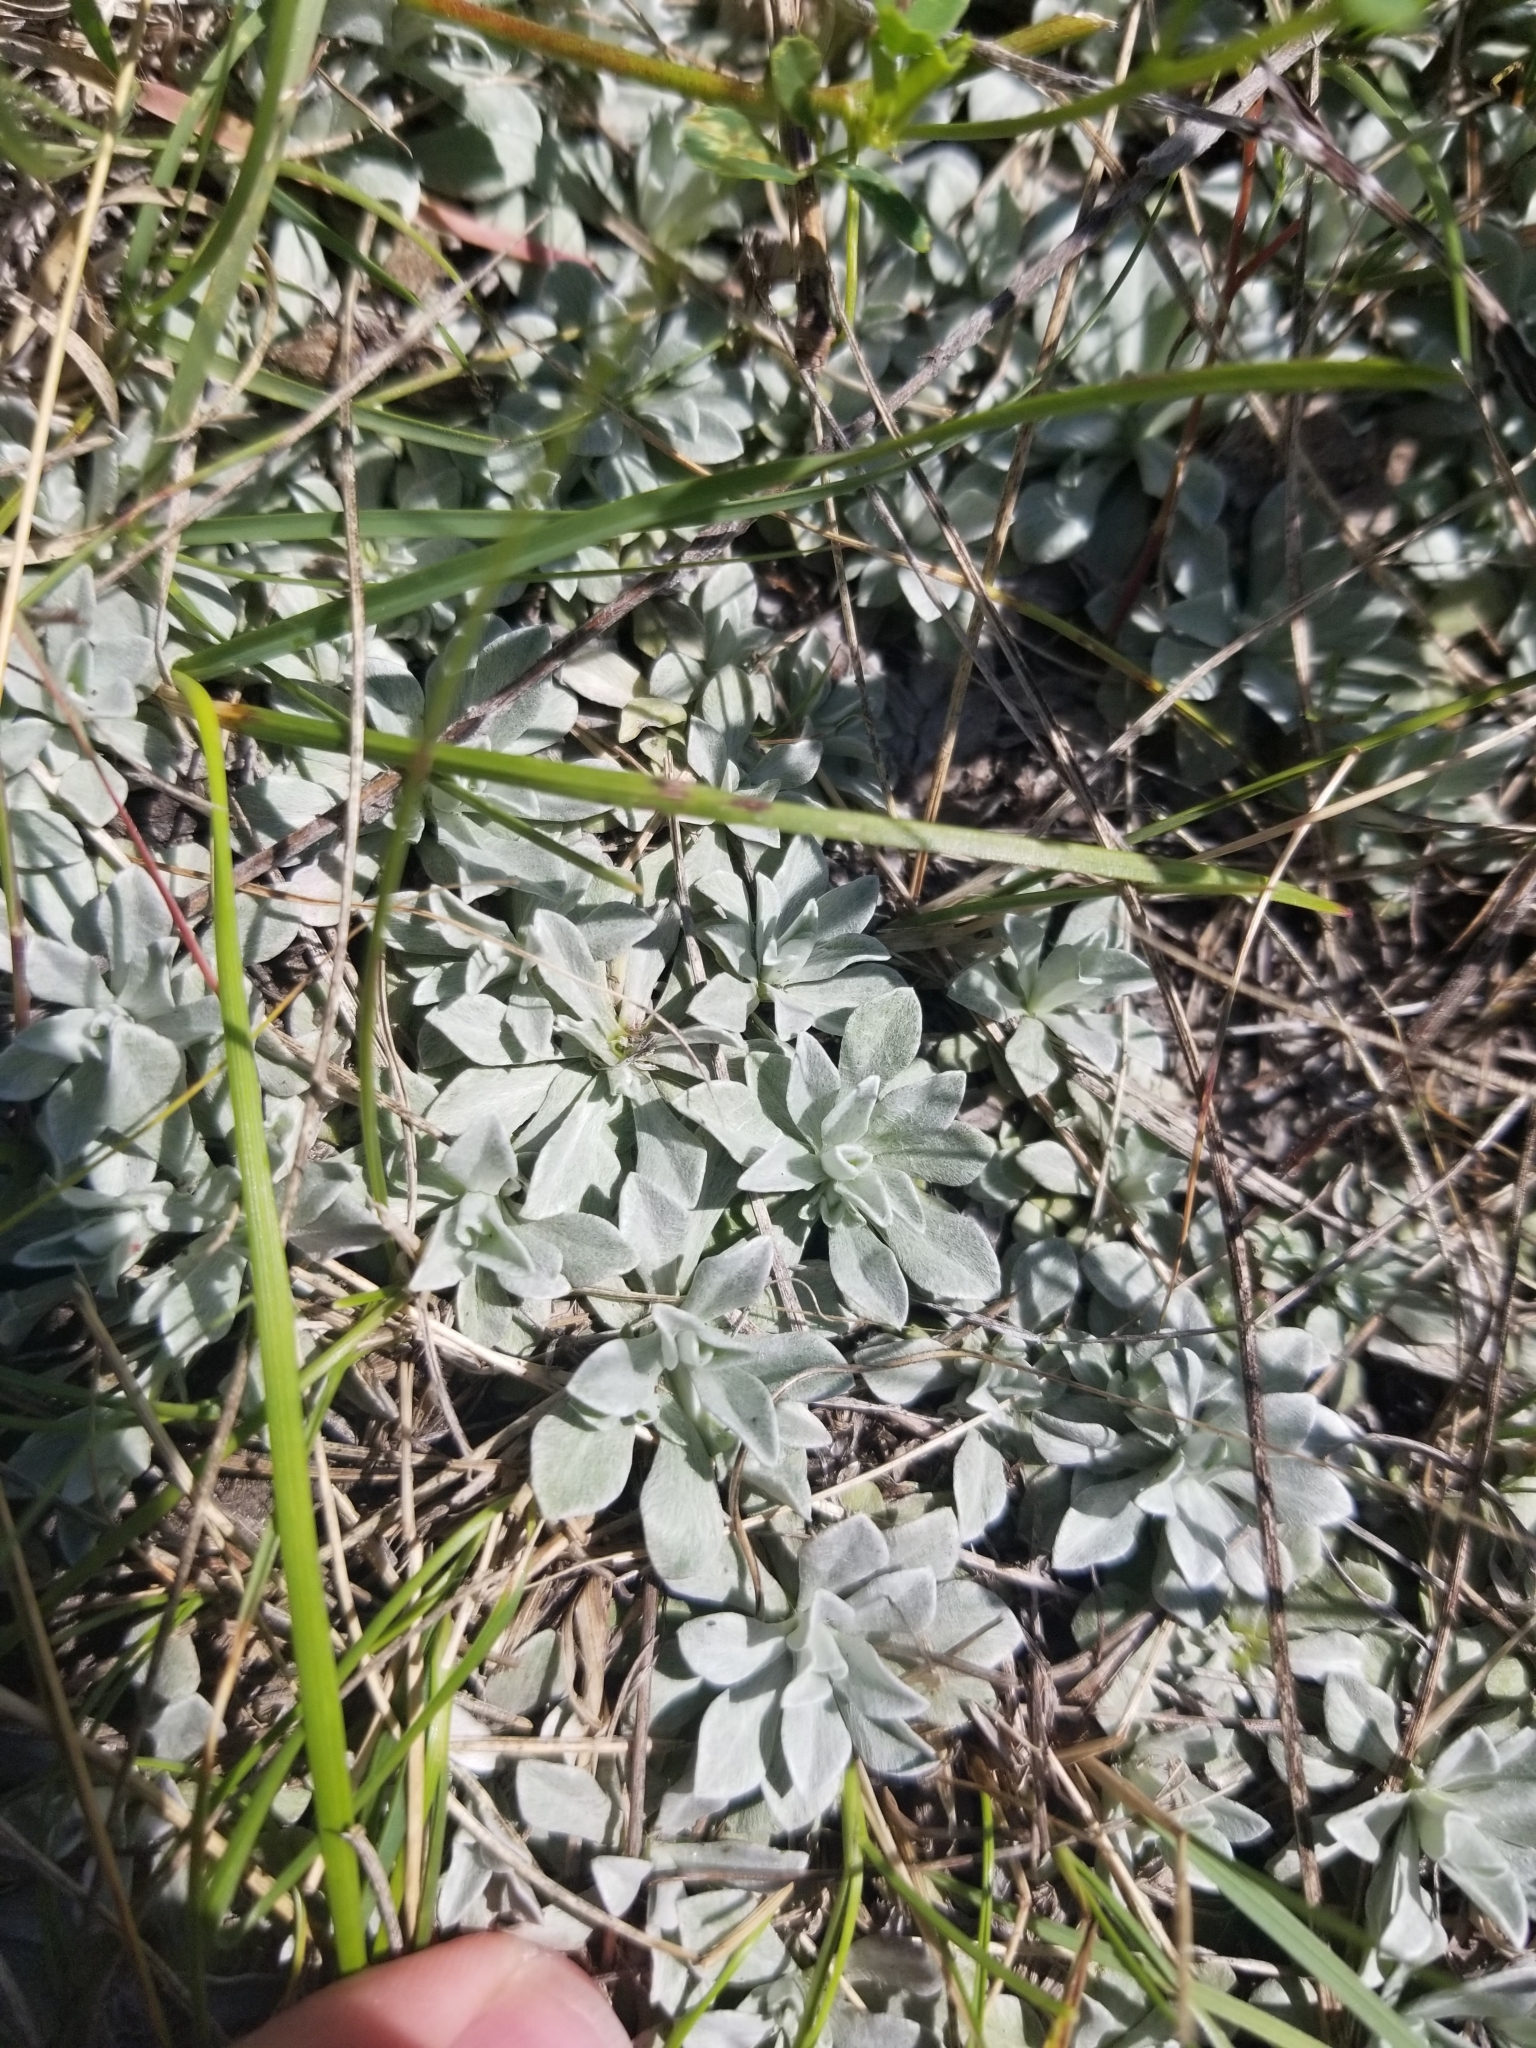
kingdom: Plantae
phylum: Tracheophyta
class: Magnoliopsida
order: Asterales
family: Asteraceae
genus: Antennaria
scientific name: Antennaria parvifolia
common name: Nuttall's pussytoes
